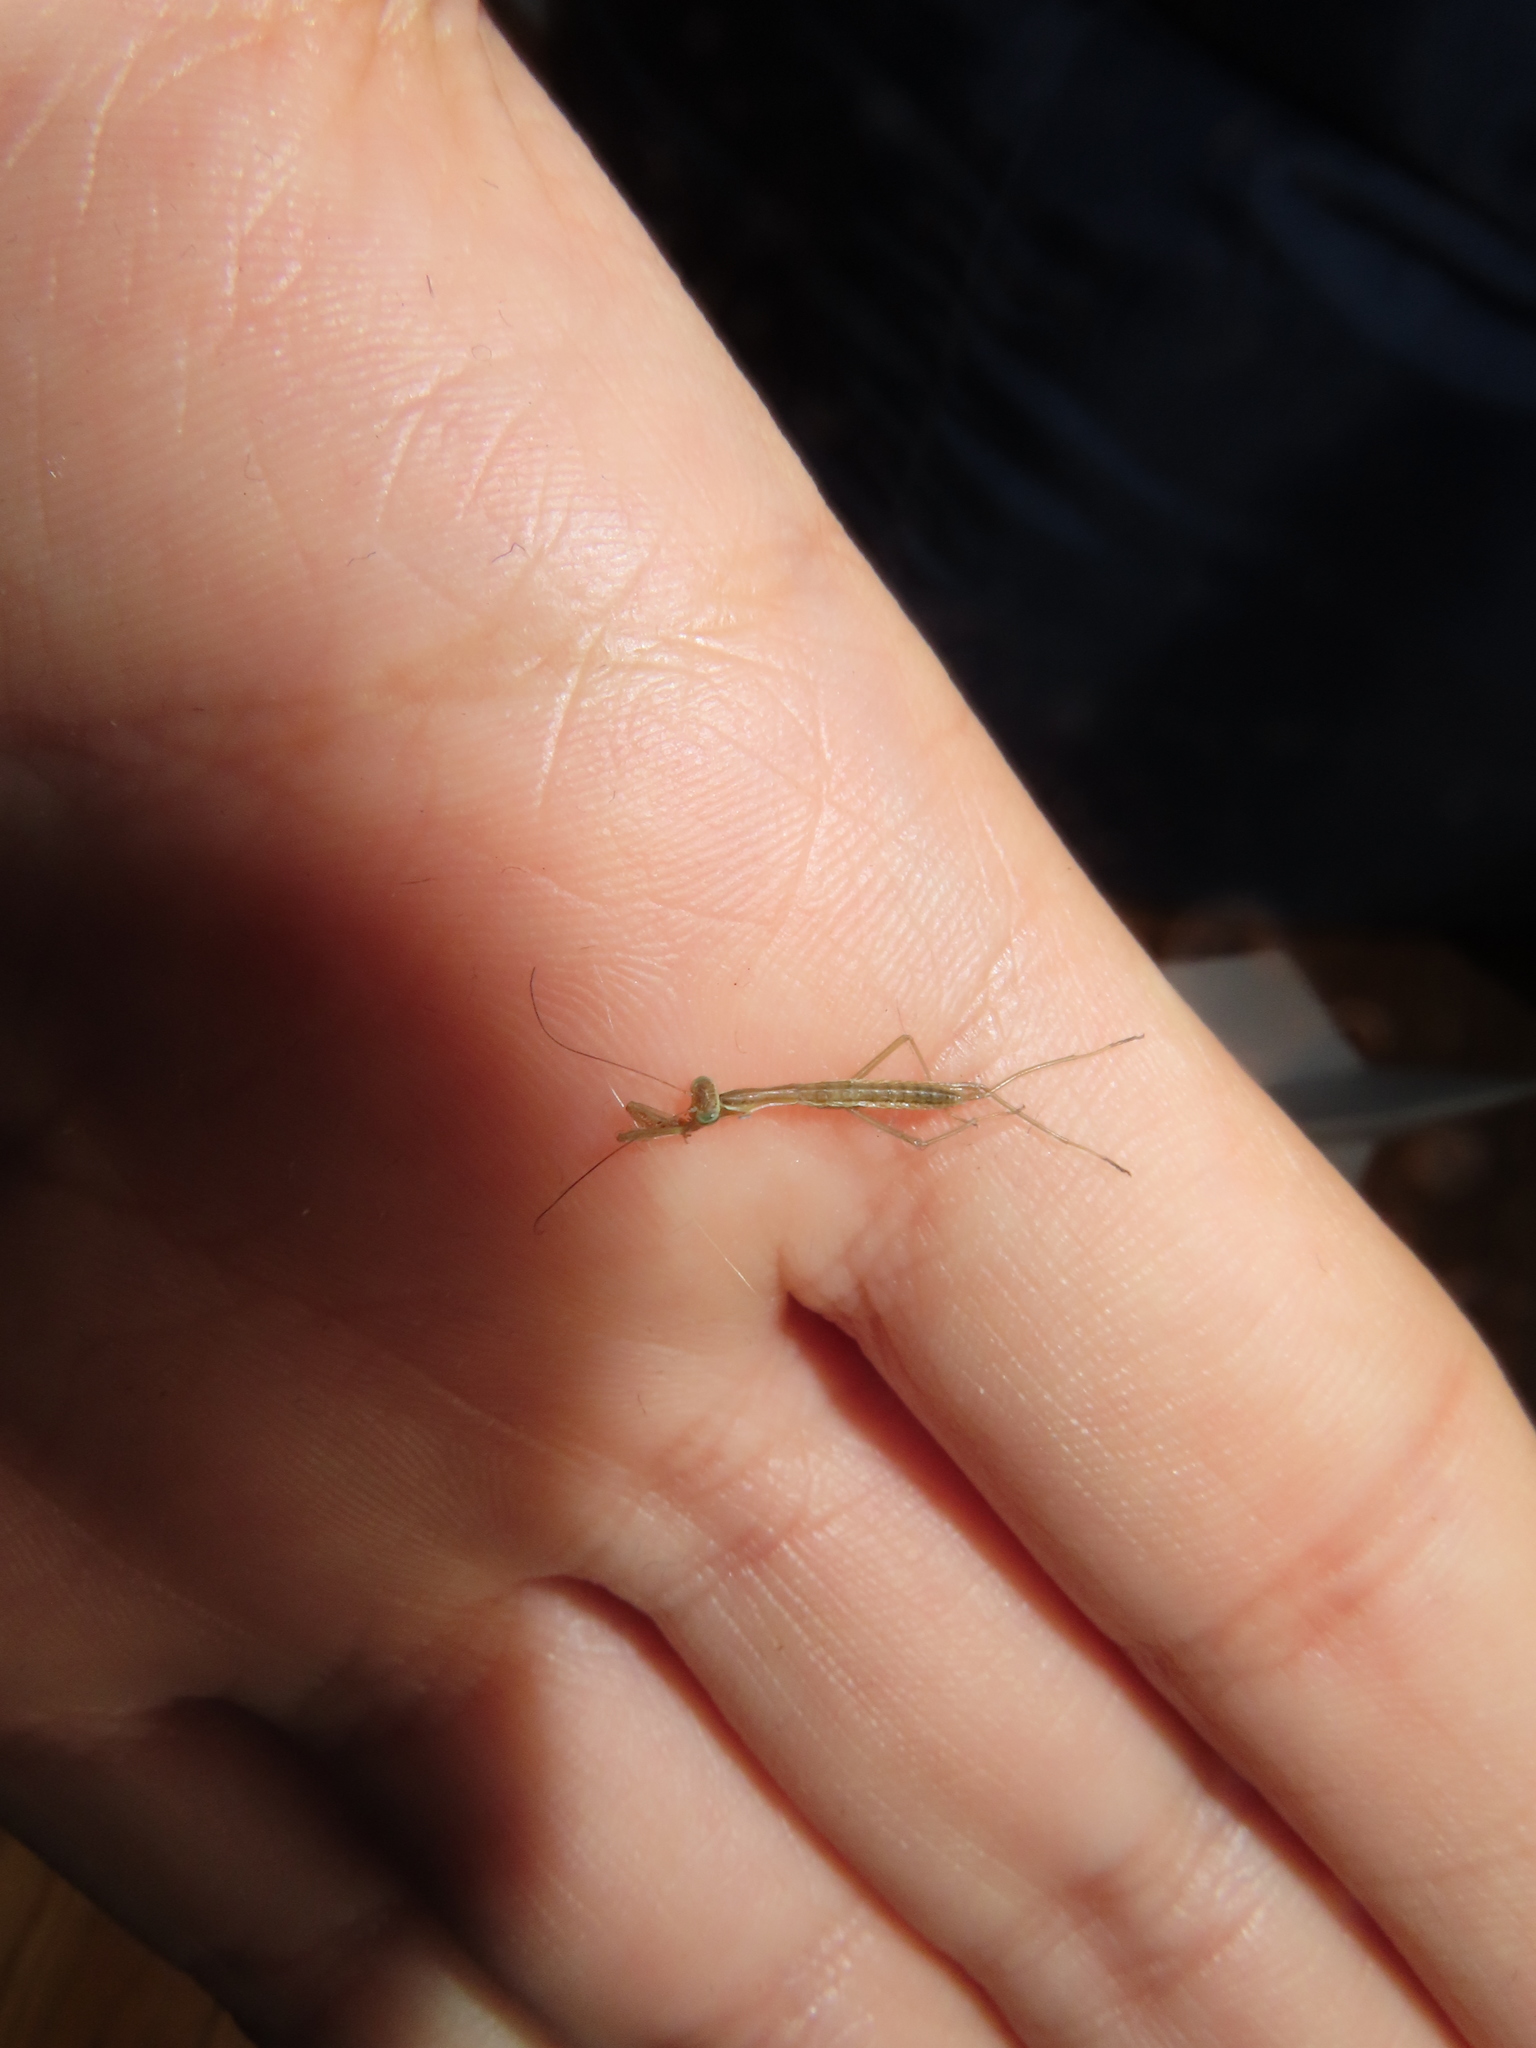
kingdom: Animalia
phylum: Arthropoda
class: Insecta
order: Mantodea
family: Mantidae
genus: Tenodera
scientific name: Tenodera sinensis
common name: Chinese mantis
